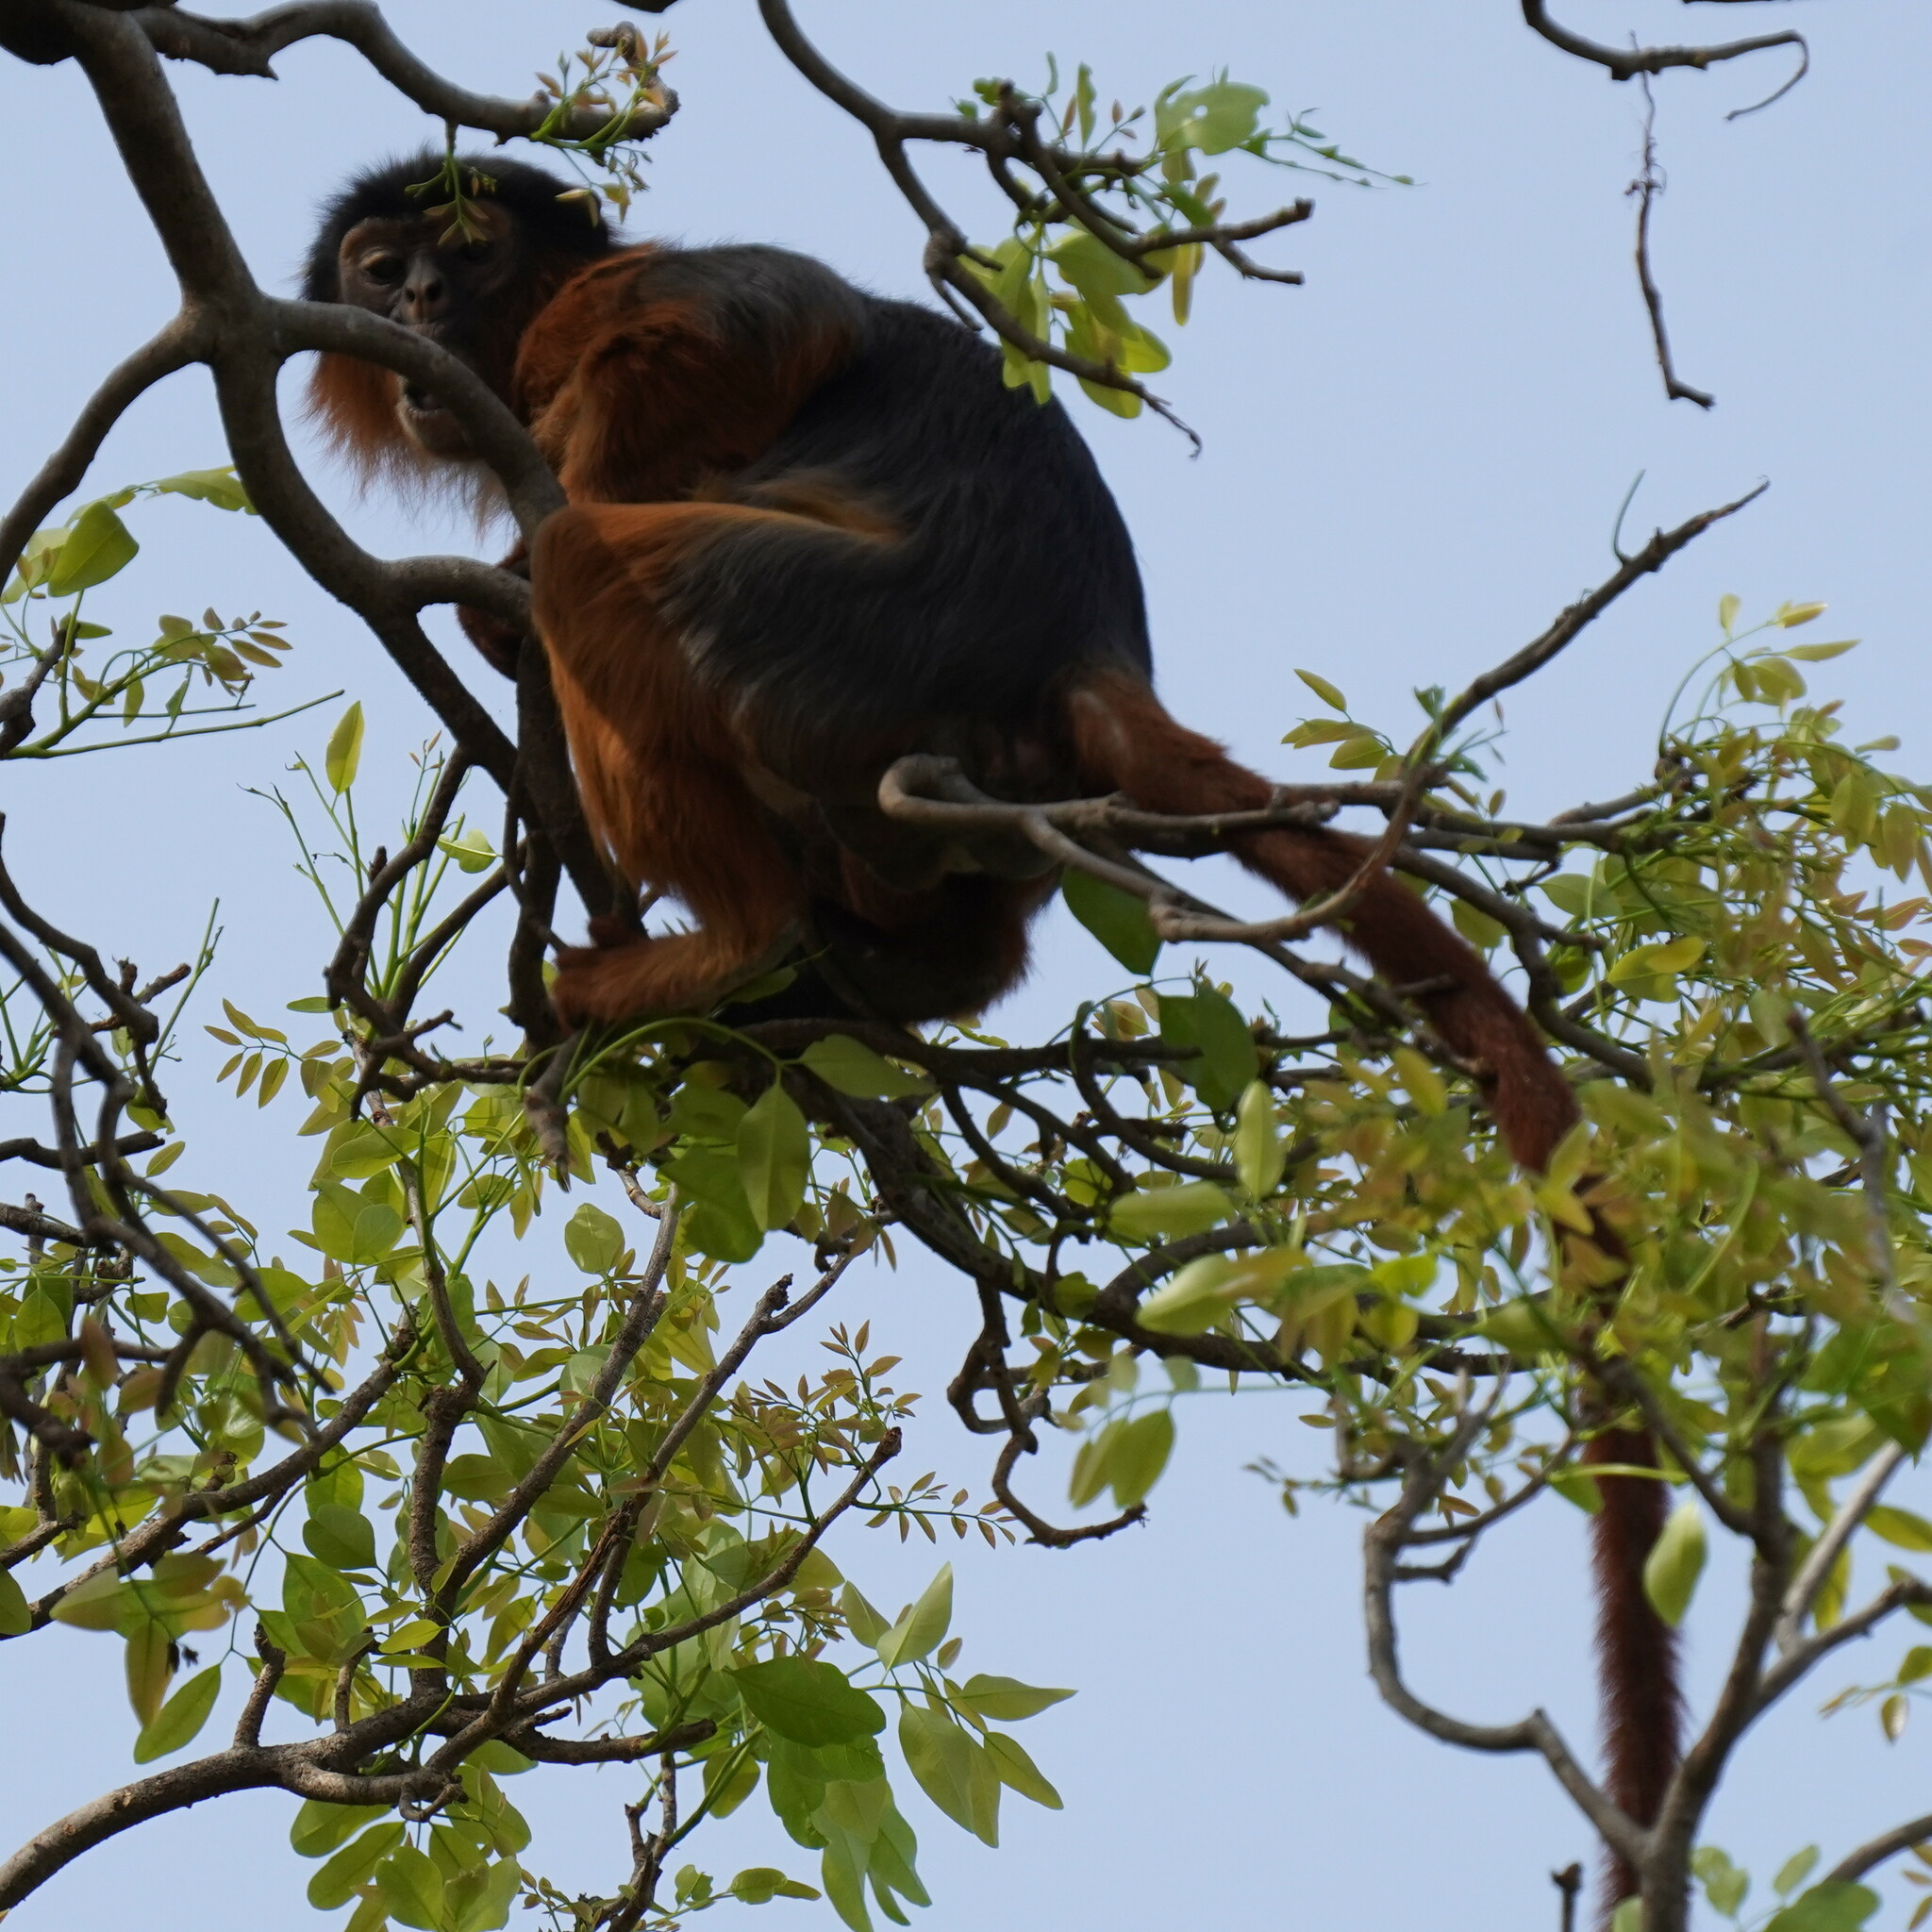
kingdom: Animalia
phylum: Chordata
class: Mammalia
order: Primates
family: Cercopithecidae
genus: Piliocolobus
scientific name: Piliocolobus badius
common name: Western red colobus
